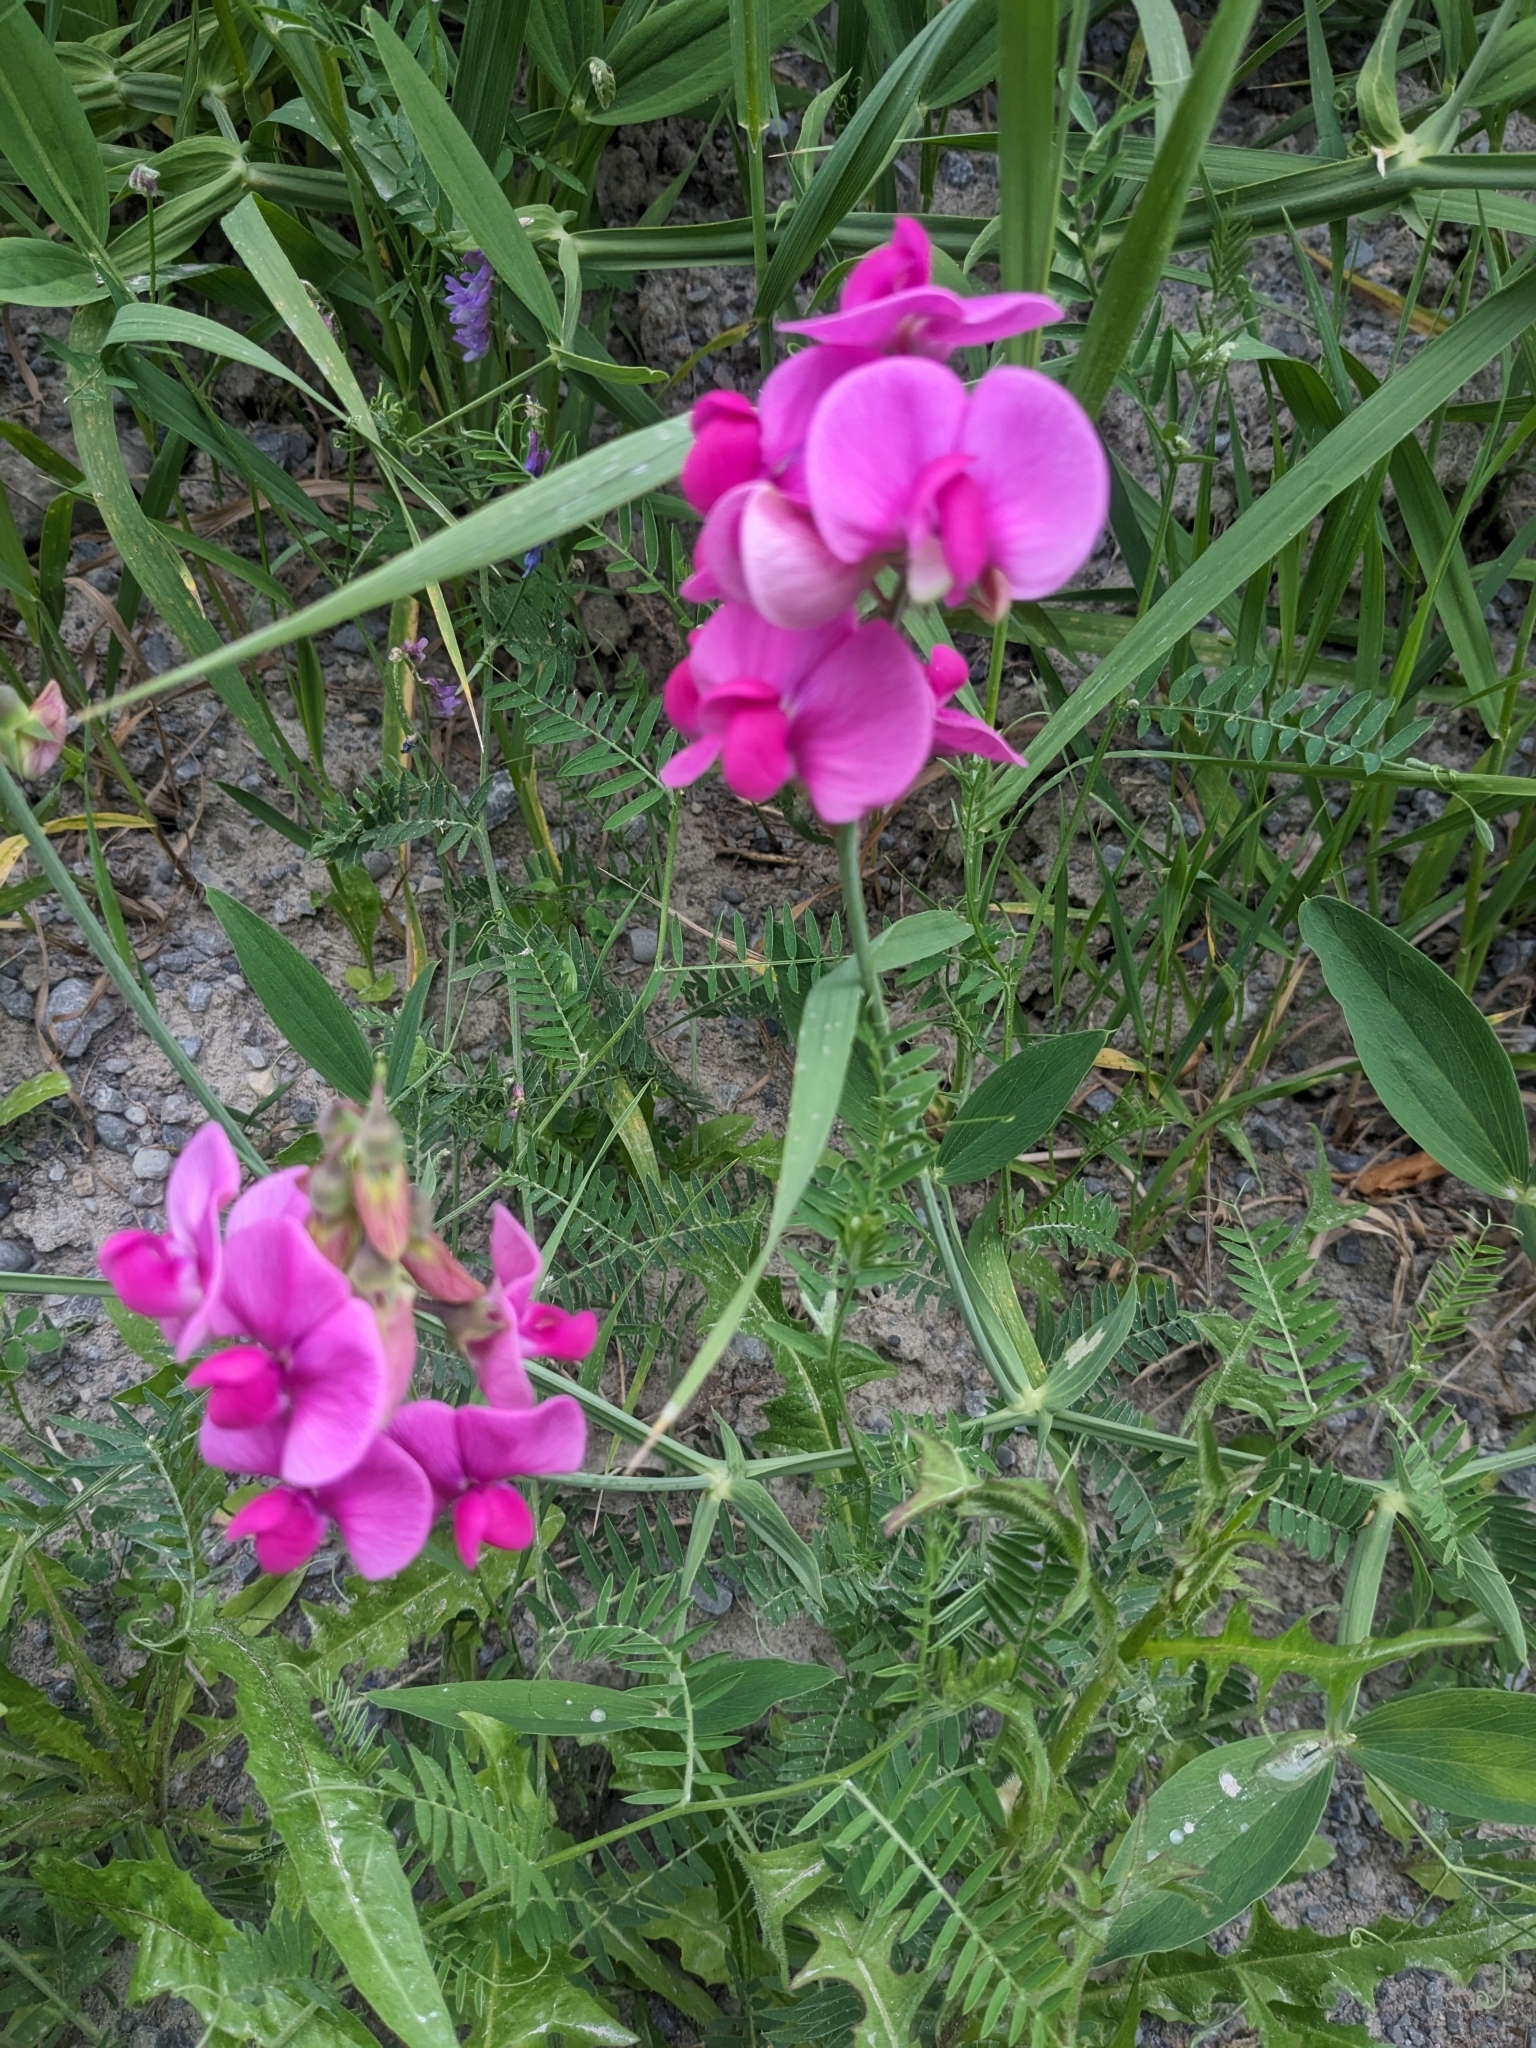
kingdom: Plantae
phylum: Tracheophyta
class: Magnoliopsida
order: Fabales
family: Fabaceae
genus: Lathyrus
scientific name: Lathyrus latifolius
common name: Perennial pea
